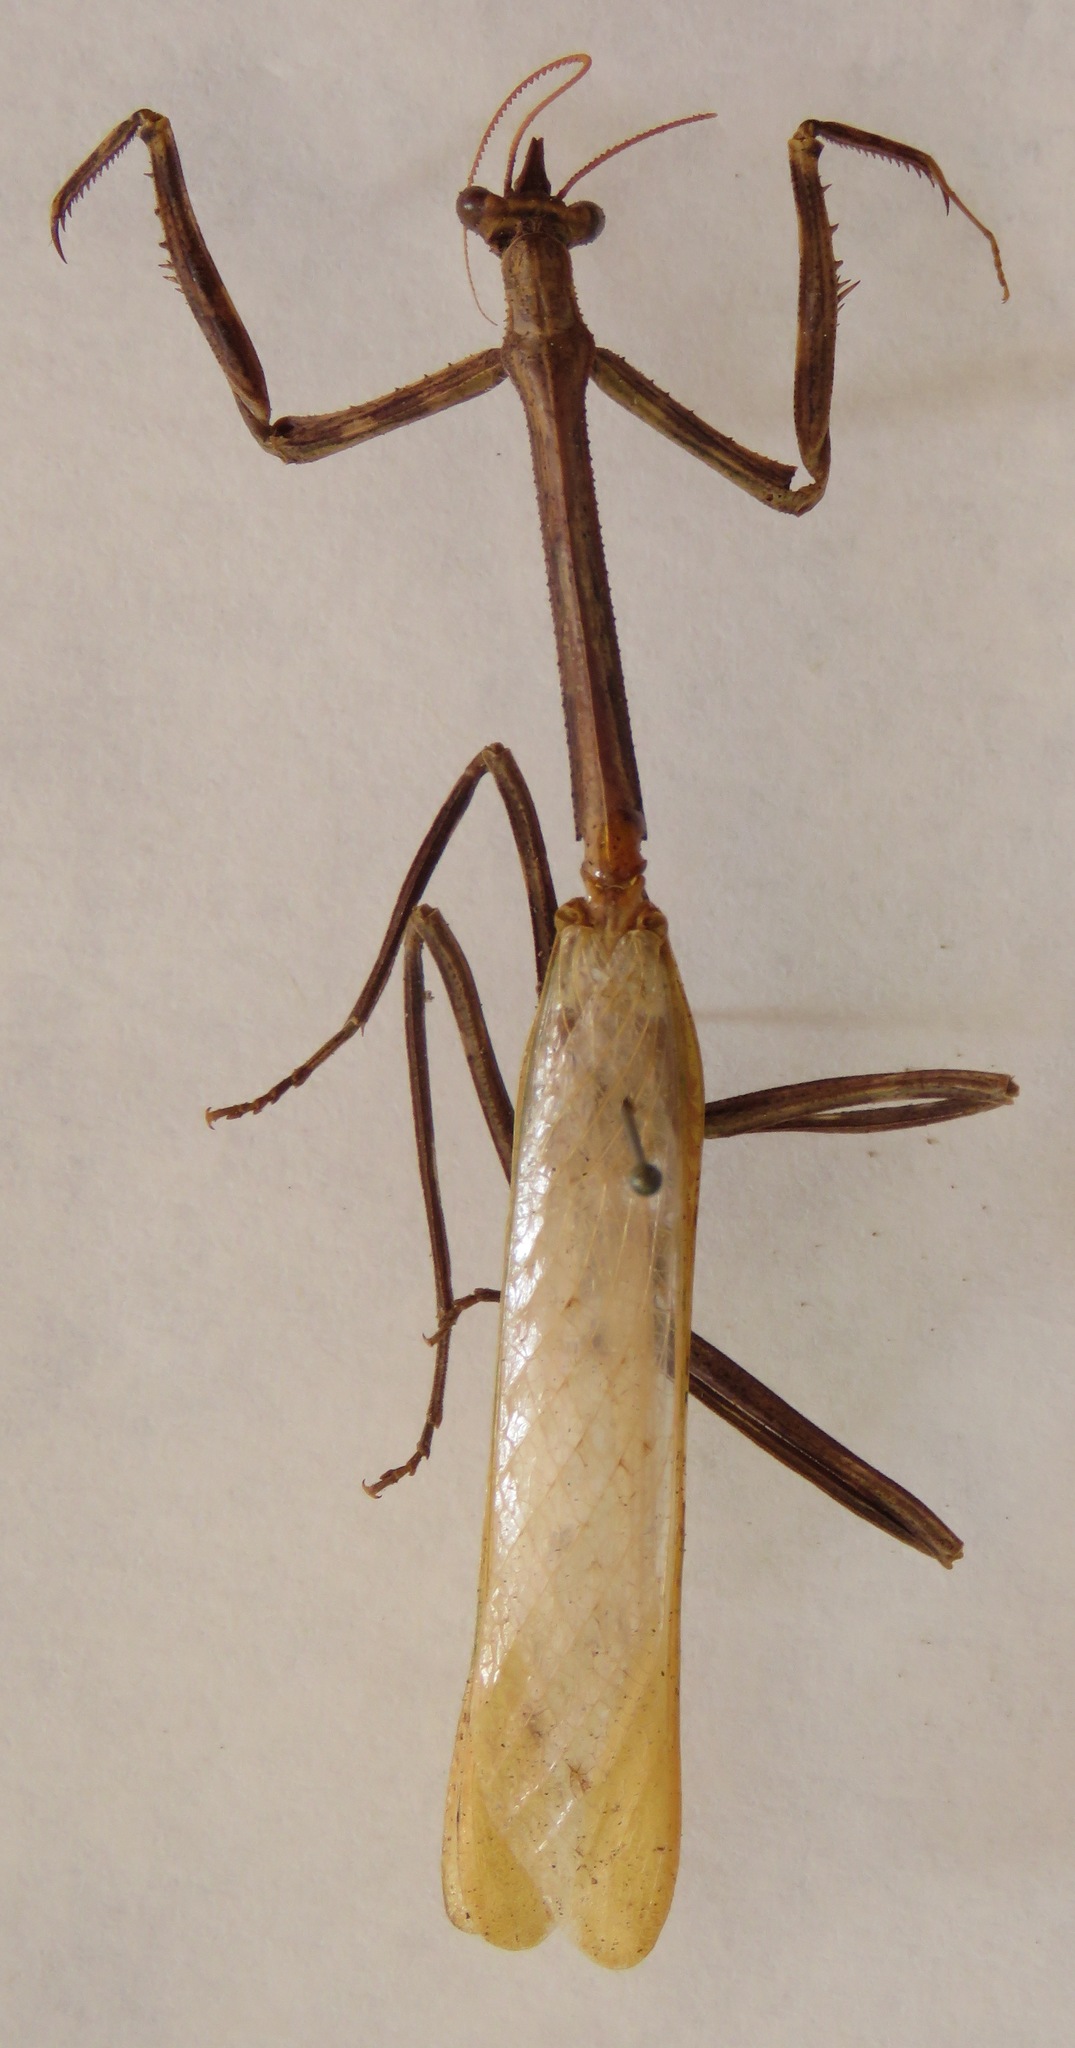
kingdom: Animalia
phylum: Arthropoda
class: Insecta
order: Mantodea
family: Mantidae
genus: Pseudovates
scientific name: Pseudovates chlorophaea
